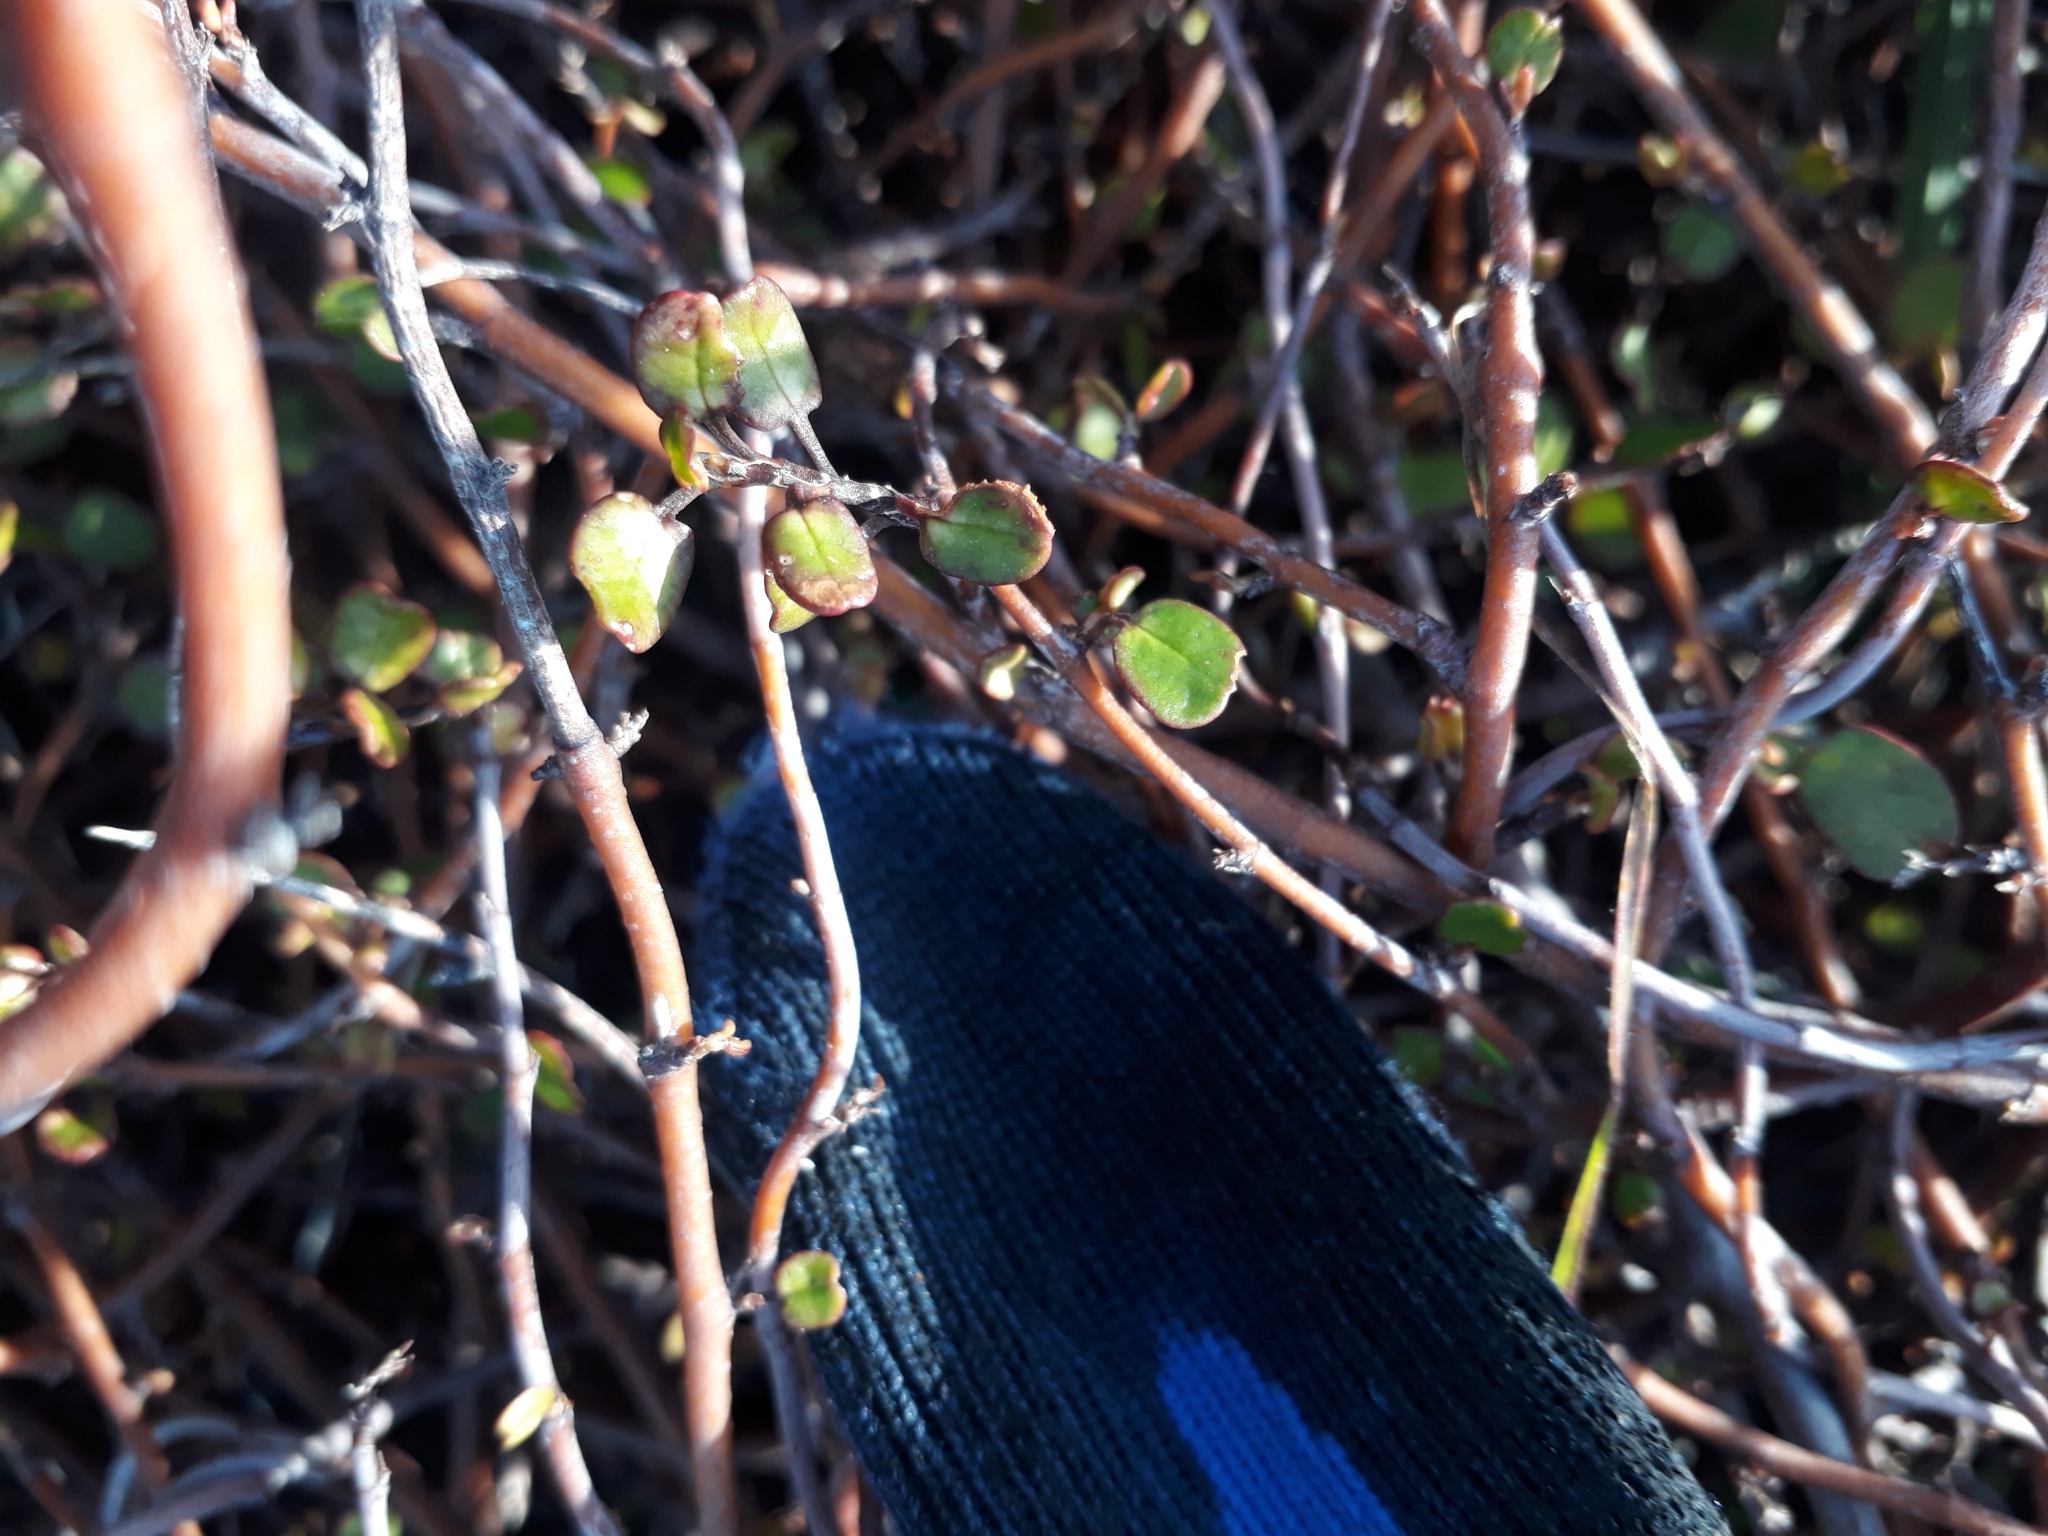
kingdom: Plantae
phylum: Tracheophyta
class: Magnoliopsida
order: Caryophyllales
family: Polygonaceae
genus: Muehlenbeckia
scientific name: Muehlenbeckia complexa
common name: Wireplant
